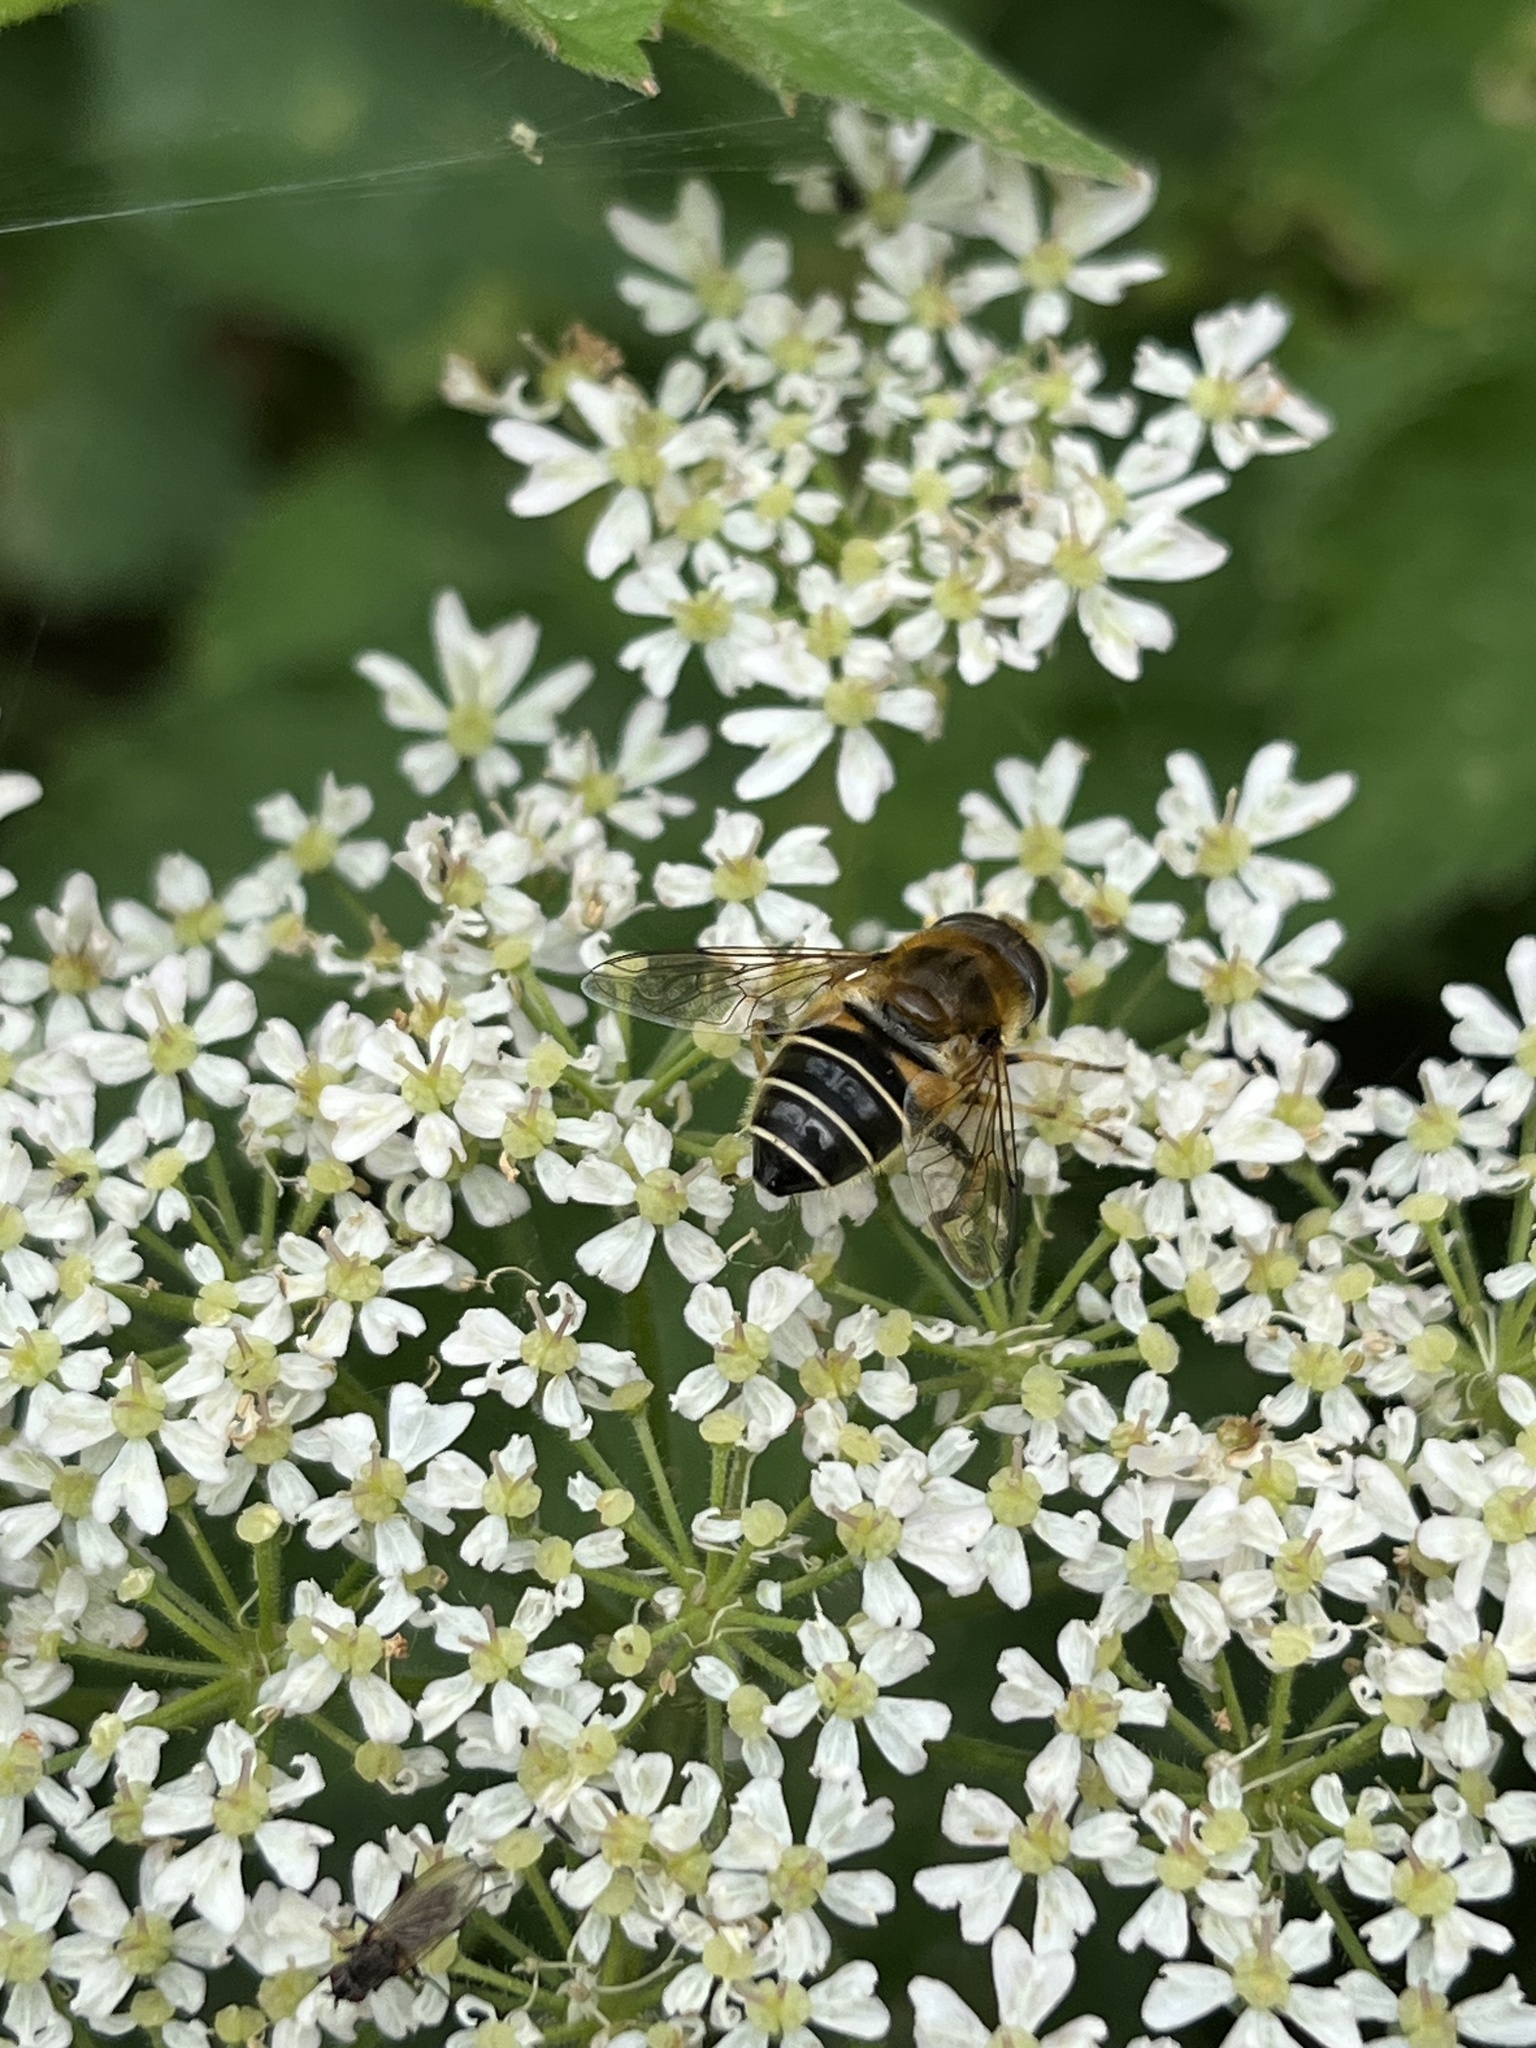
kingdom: Animalia
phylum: Arthropoda
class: Insecta
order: Diptera
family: Syrphidae
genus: Eristalis
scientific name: Eristalis nemorum
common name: Orange-spined drone fly
